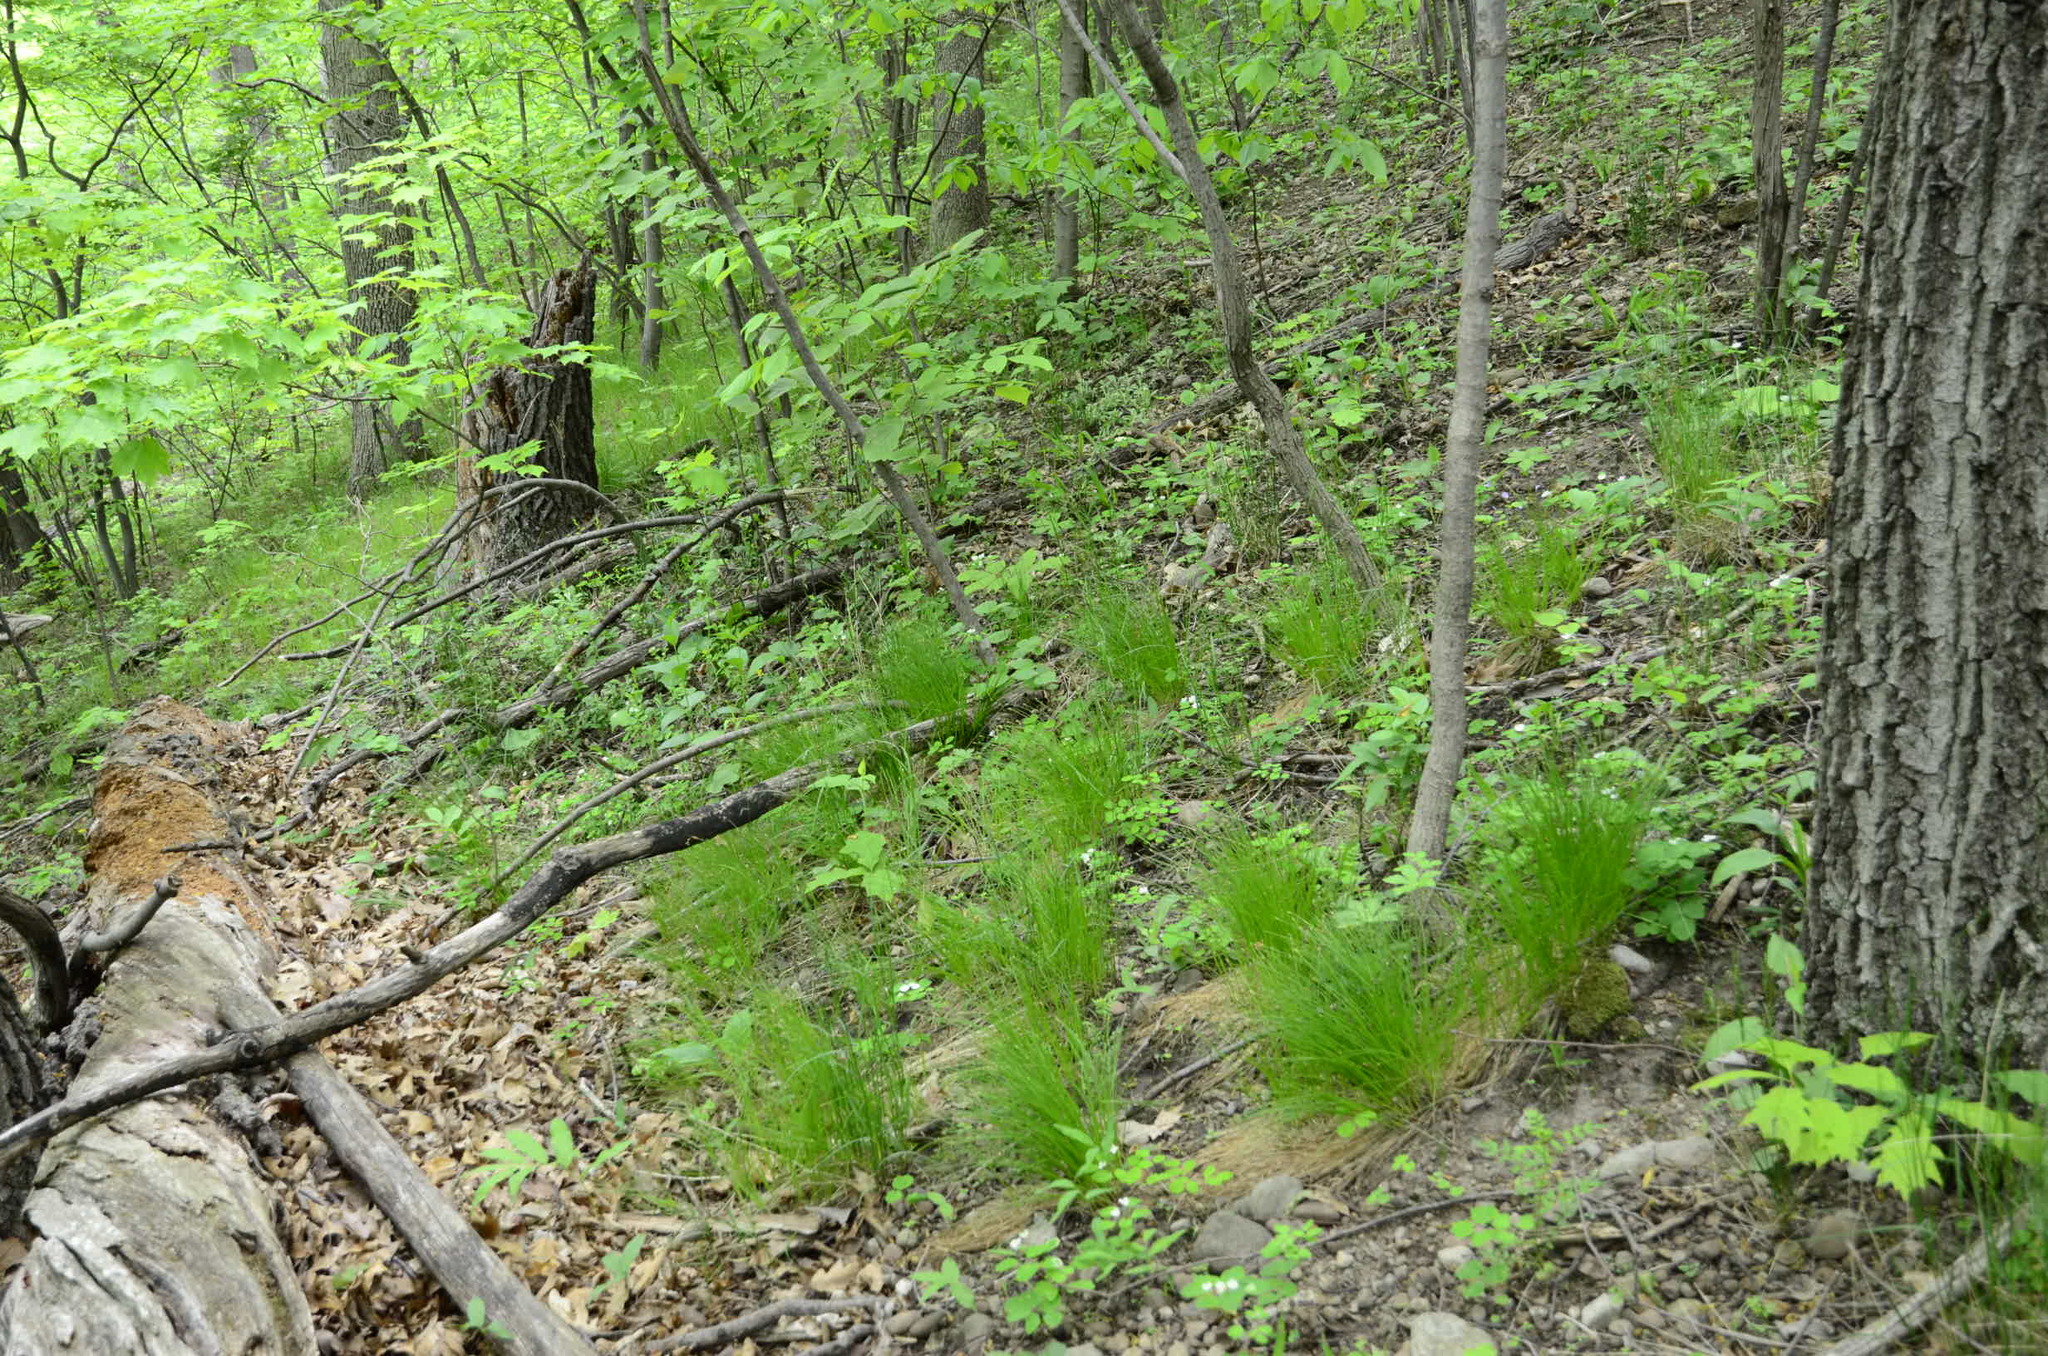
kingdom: Plantae
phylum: Tracheophyta
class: Liliopsida
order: Poales
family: Cyperaceae
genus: Trichophorum
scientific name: Trichophorum planifolium
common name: Bashful bulrush
